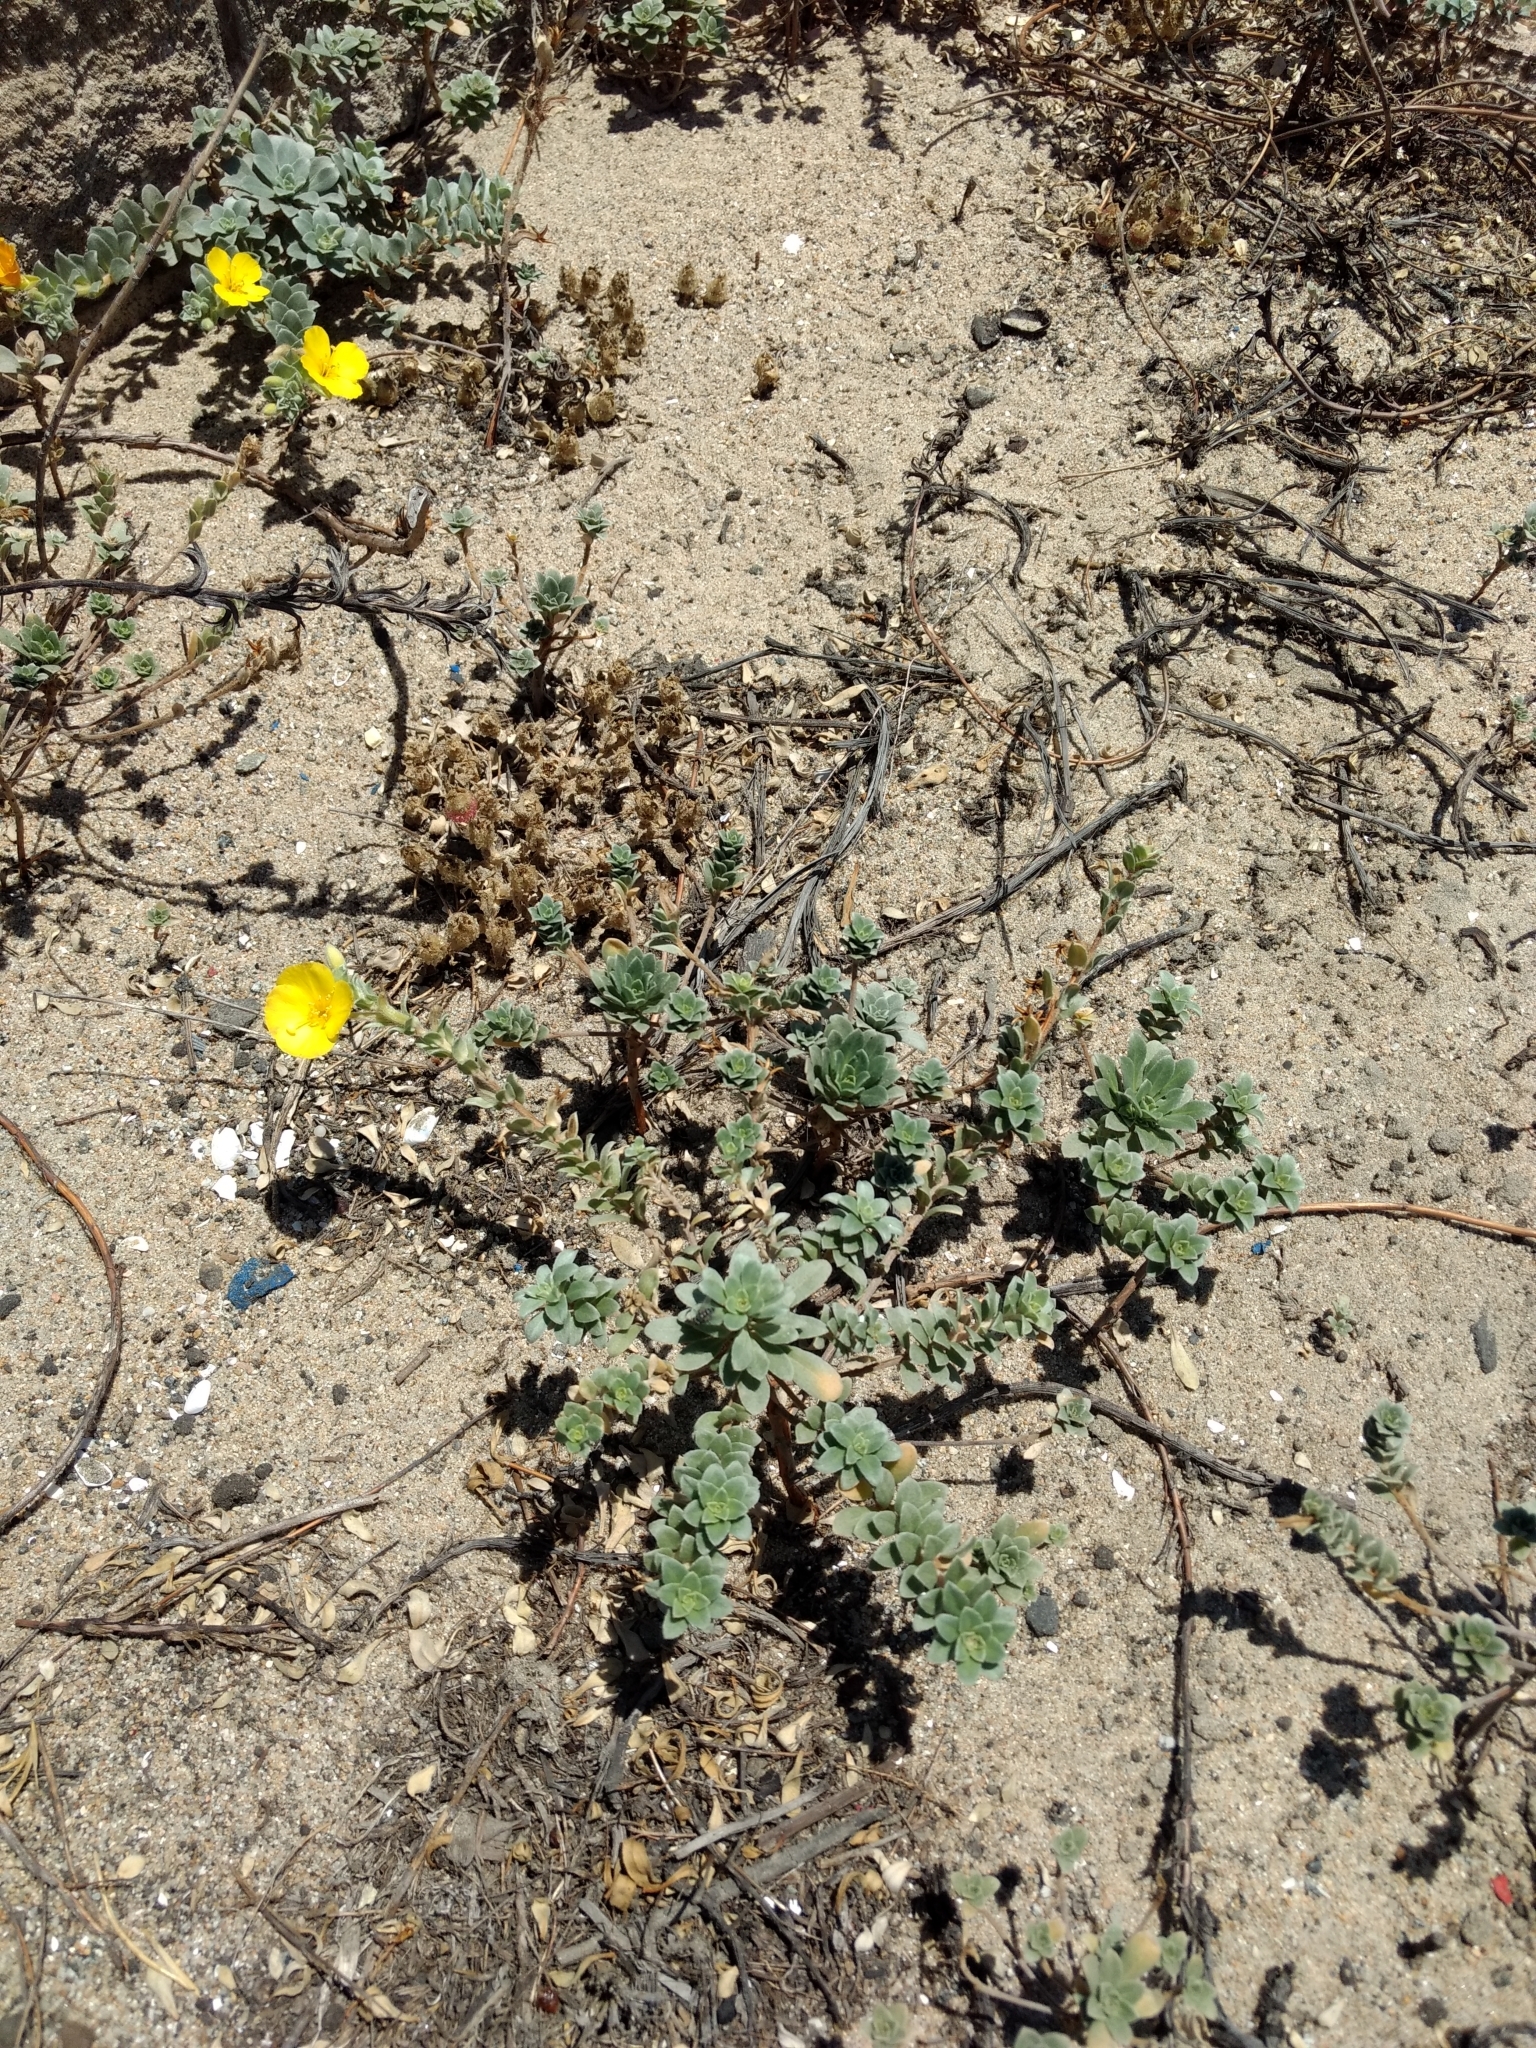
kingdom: Plantae
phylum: Tracheophyta
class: Magnoliopsida
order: Myrtales
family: Onagraceae
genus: Camissoniopsis
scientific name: Camissoniopsis cheiranthifolia
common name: Beach suncup
